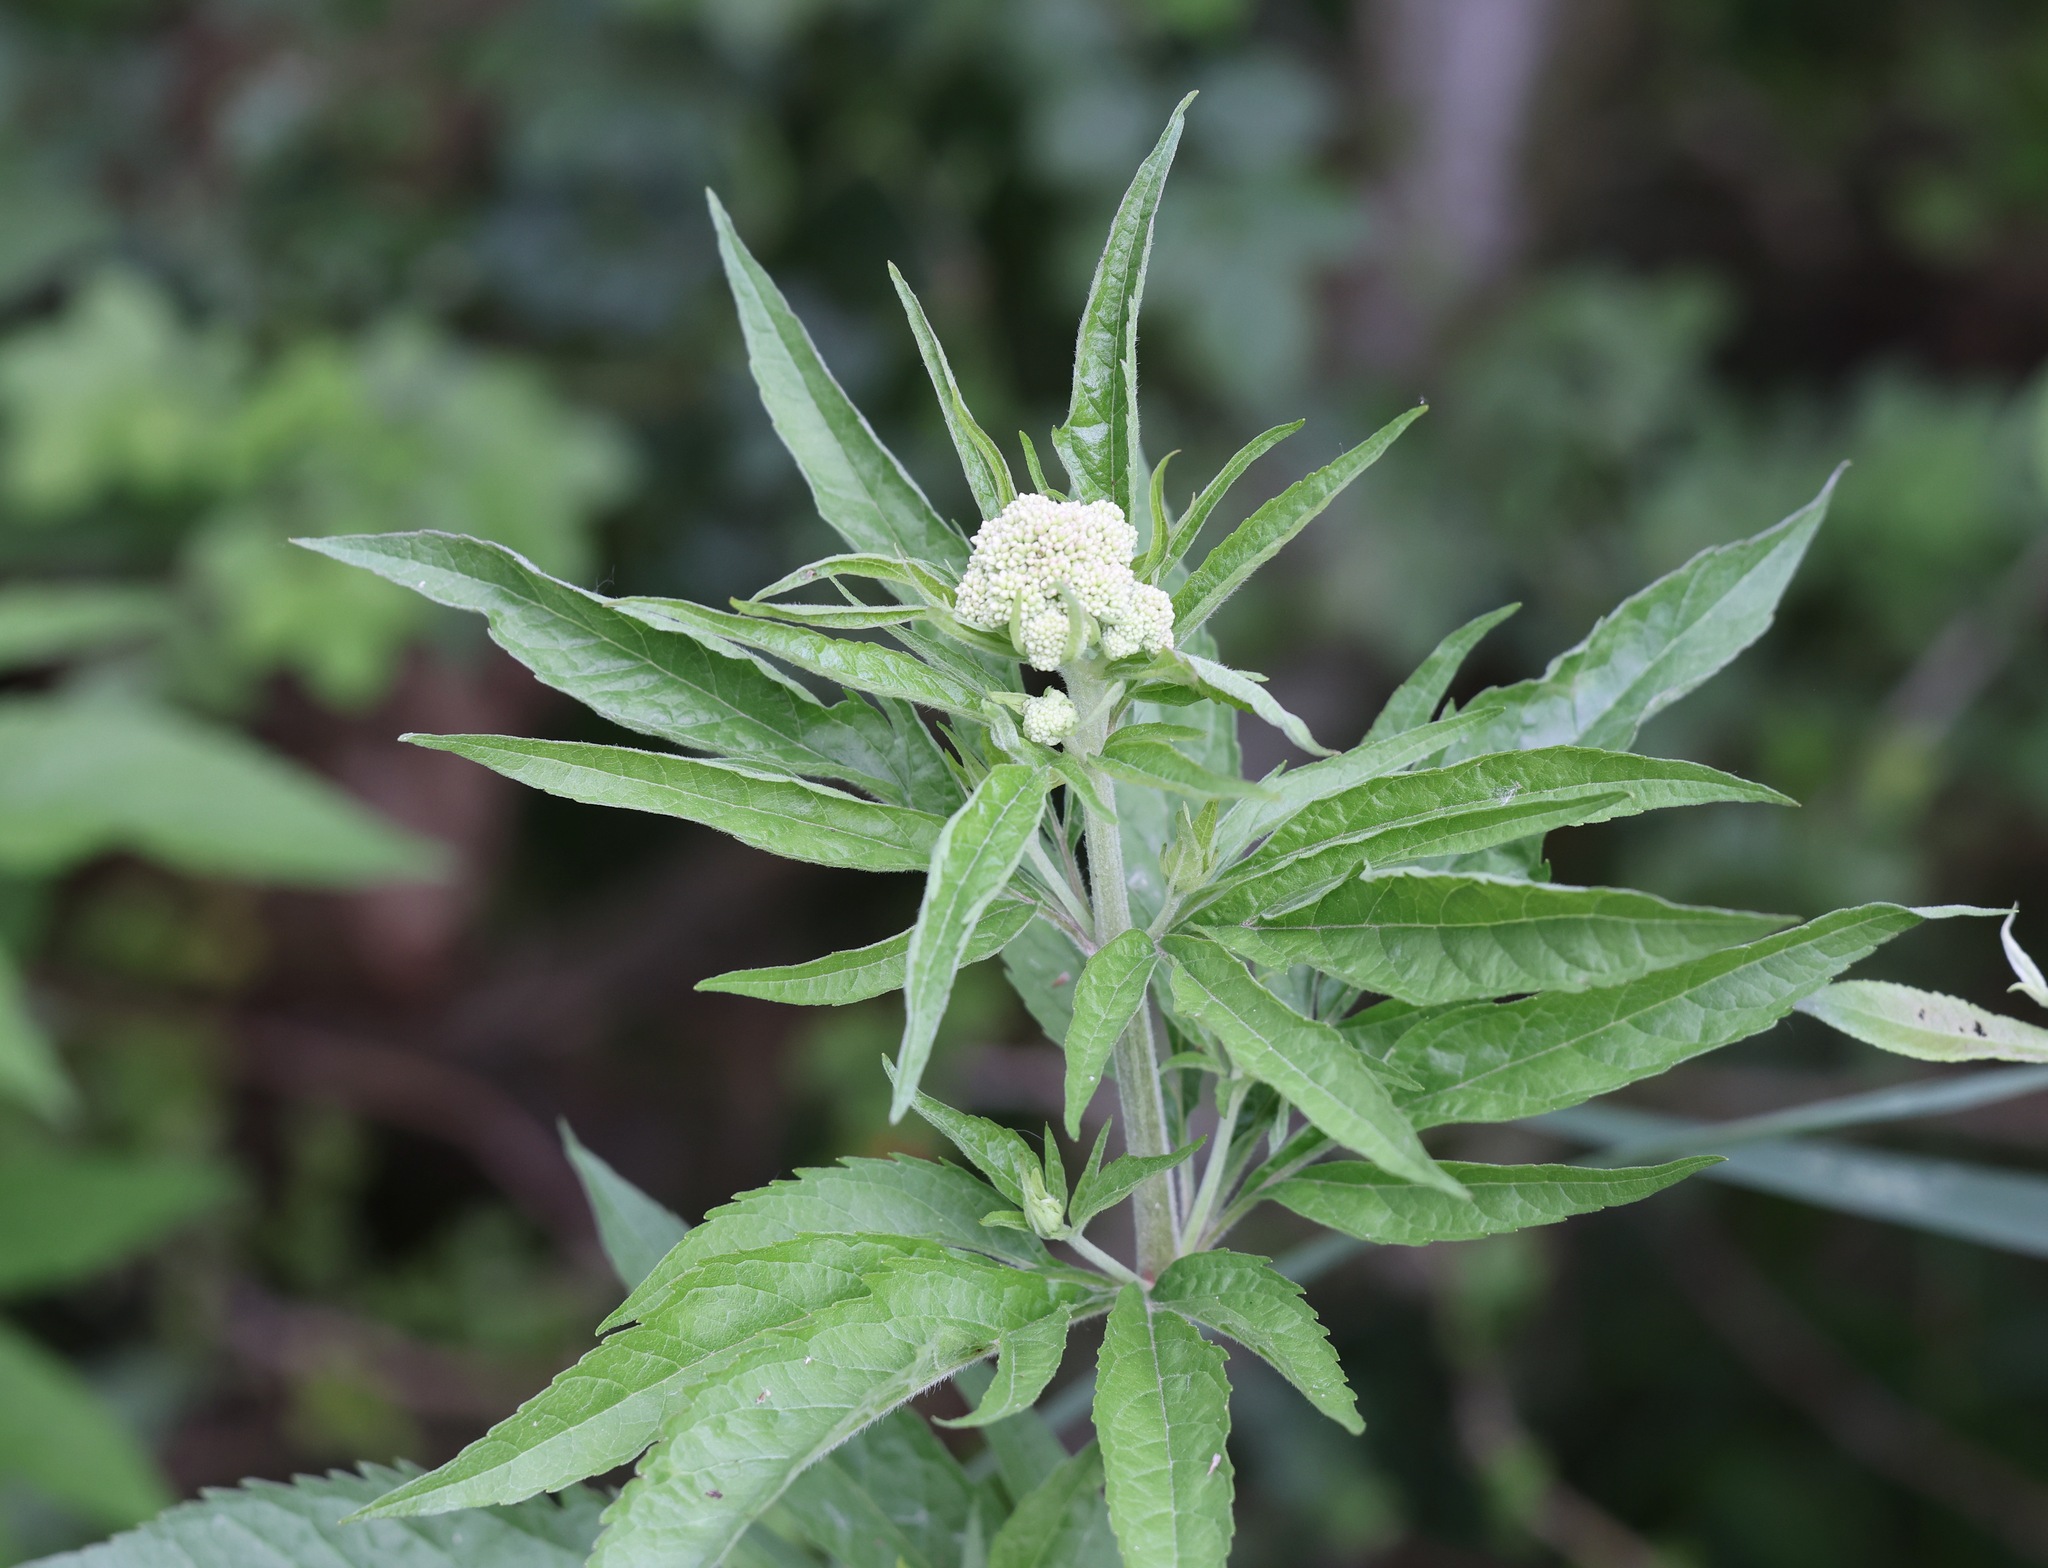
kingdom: Plantae
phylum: Tracheophyta
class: Magnoliopsida
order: Asterales
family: Asteraceae
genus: Eupatorium
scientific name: Eupatorium cannabinum
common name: Hemp-agrimony
